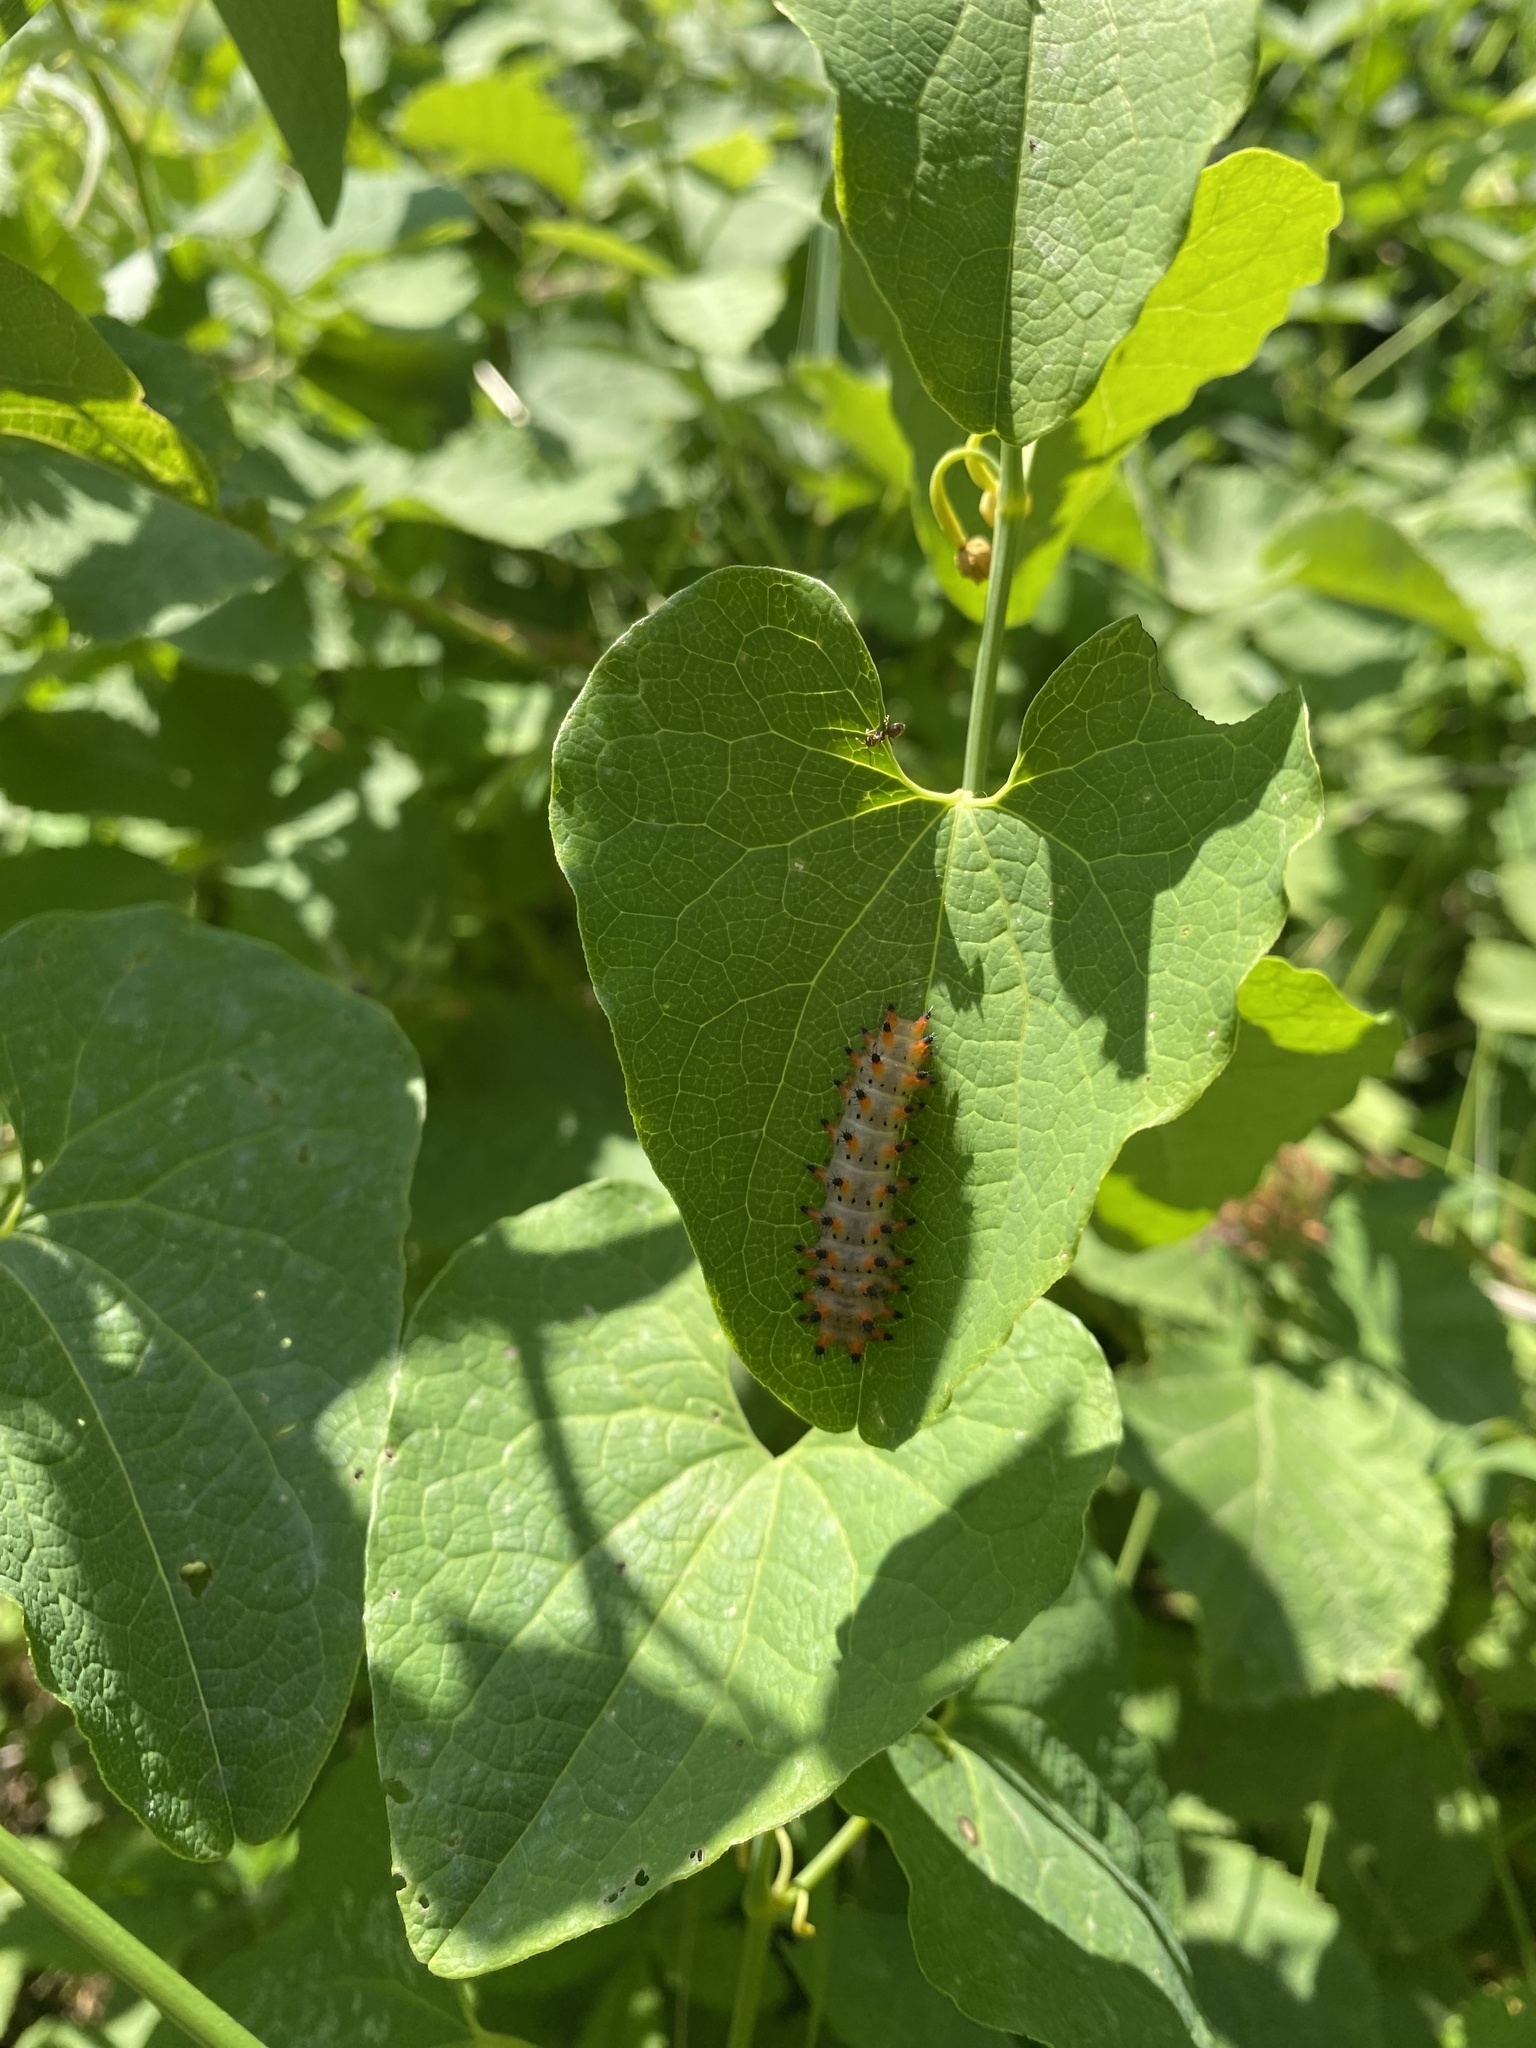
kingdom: Animalia
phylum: Arthropoda
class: Insecta
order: Lepidoptera
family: Papilionidae
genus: Zerynthia
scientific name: Zerynthia polyxena
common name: Southern festoon
